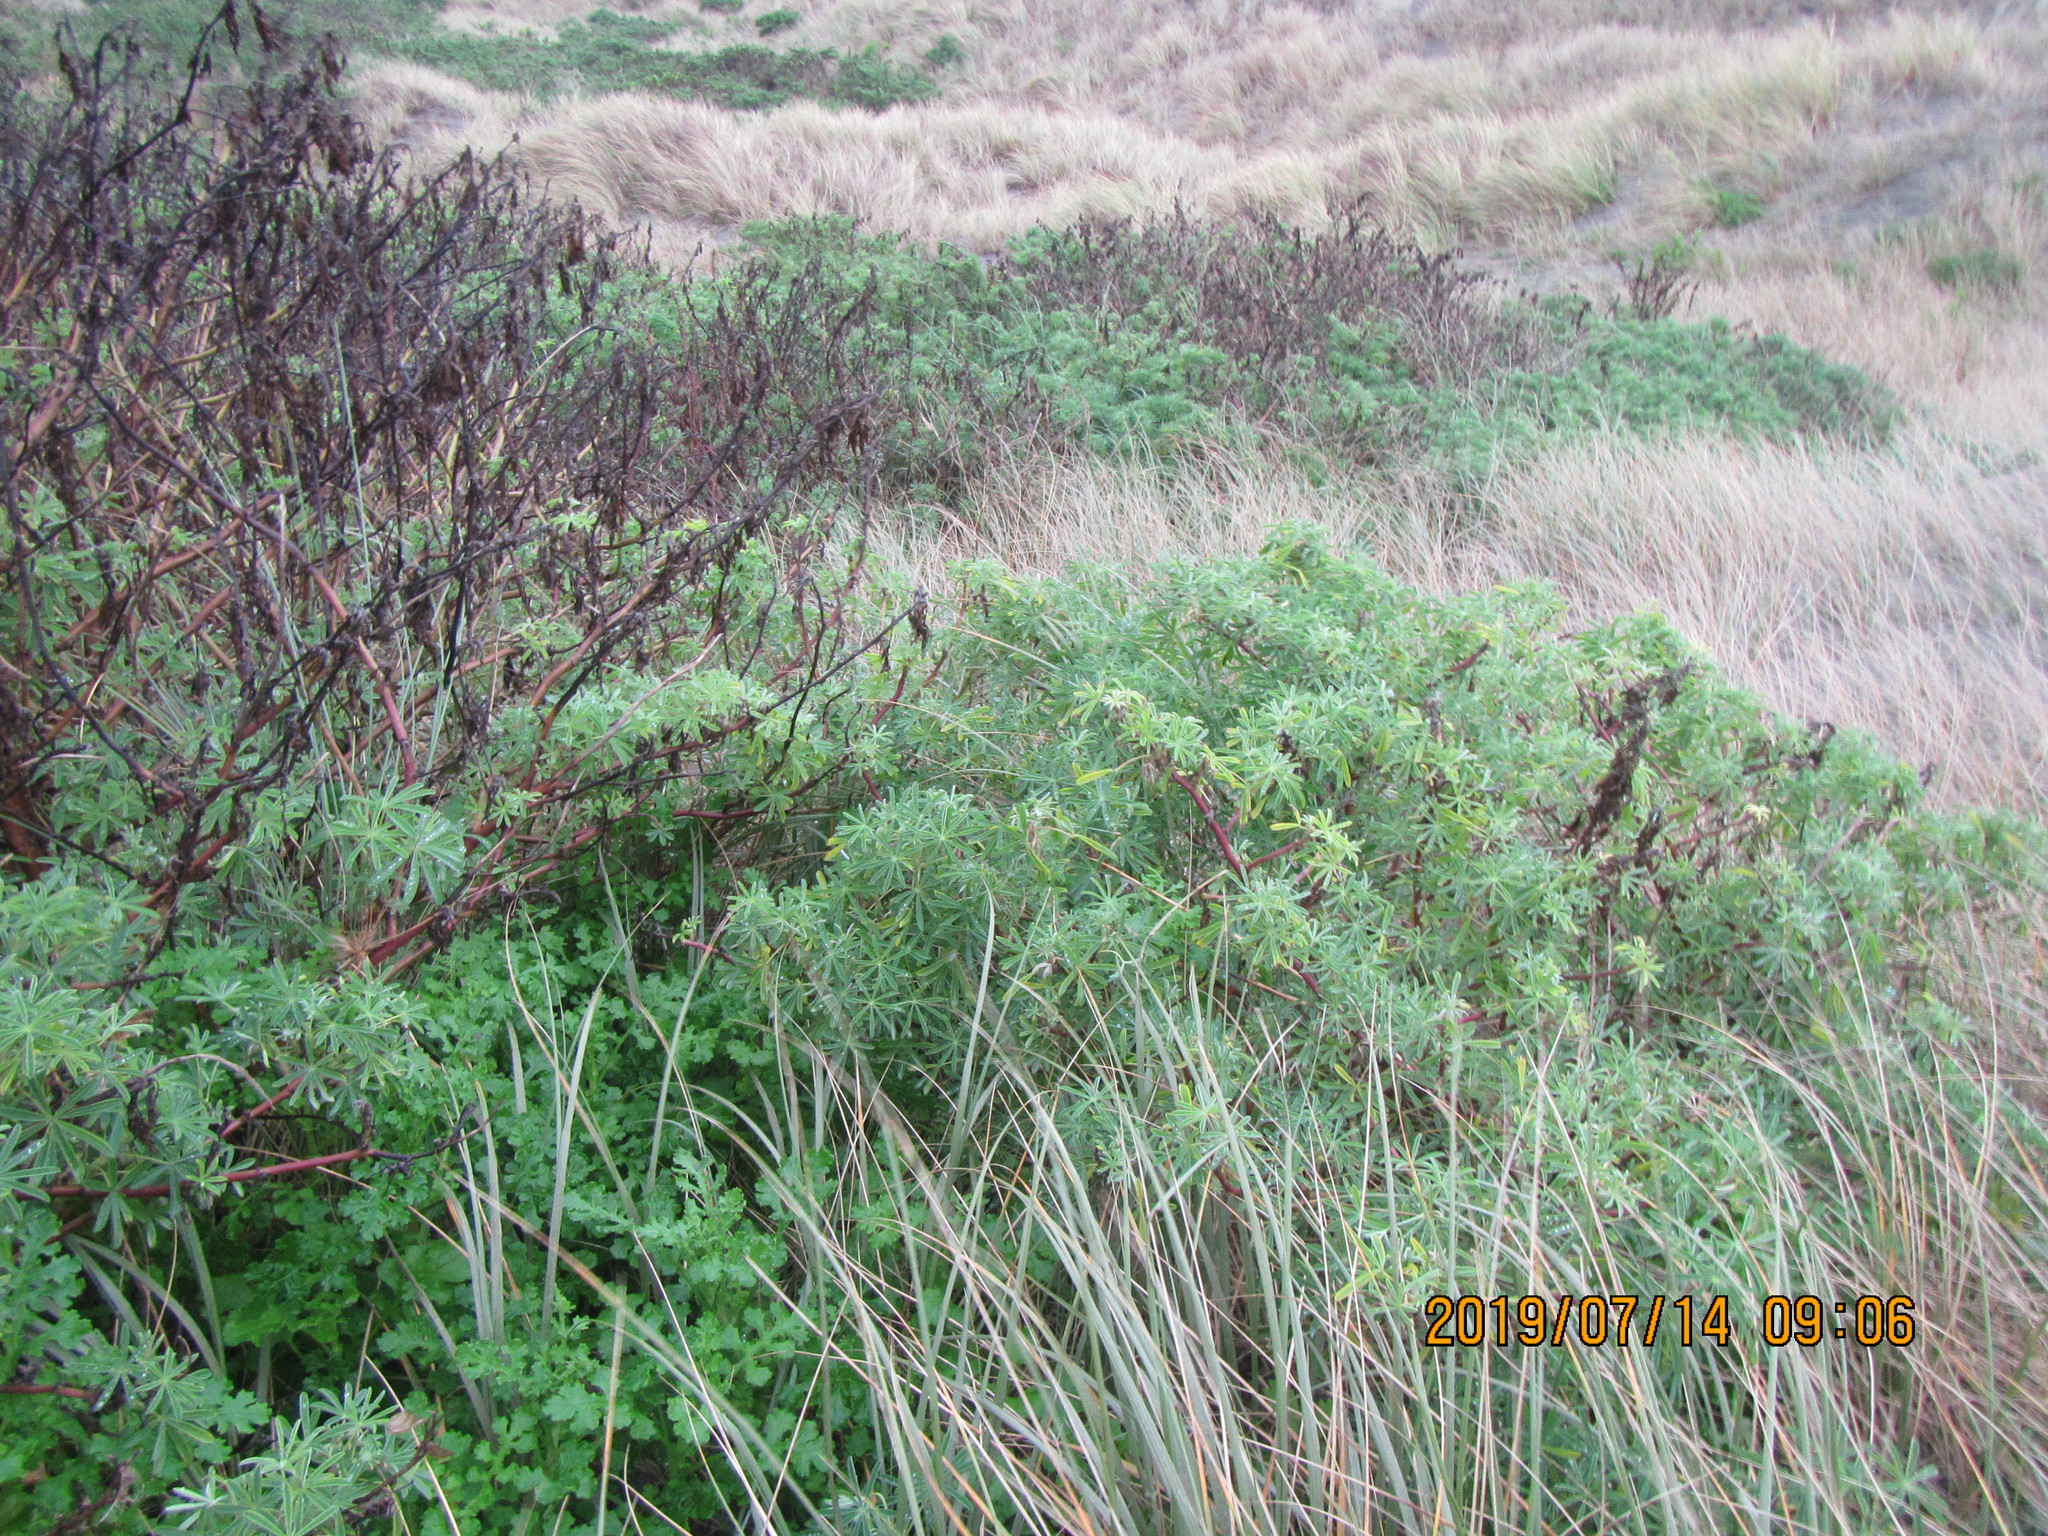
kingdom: Plantae
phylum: Tracheophyta
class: Magnoliopsida
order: Fabales
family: Fabaceae
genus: Lupinus
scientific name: Lupinus arboreus
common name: Yellow bush lupine
